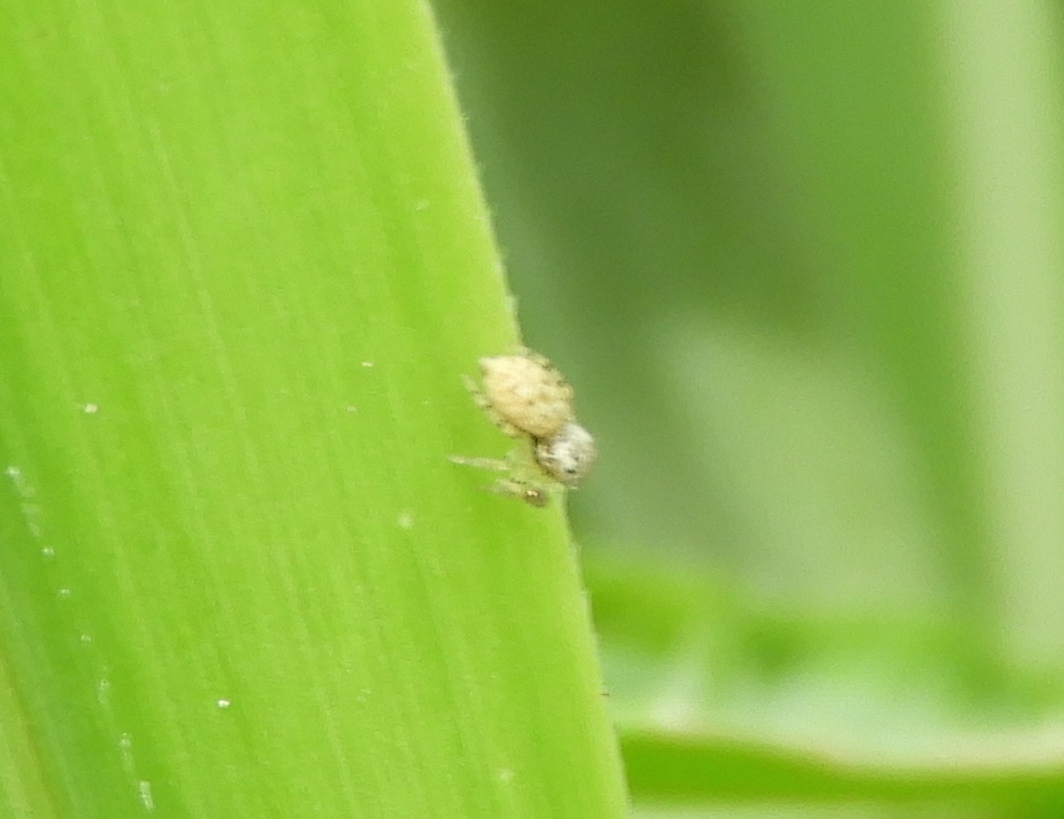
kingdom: Animalia
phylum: Arthropoda
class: Arachnida
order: Araneae
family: Salticidae
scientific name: Salticidae
